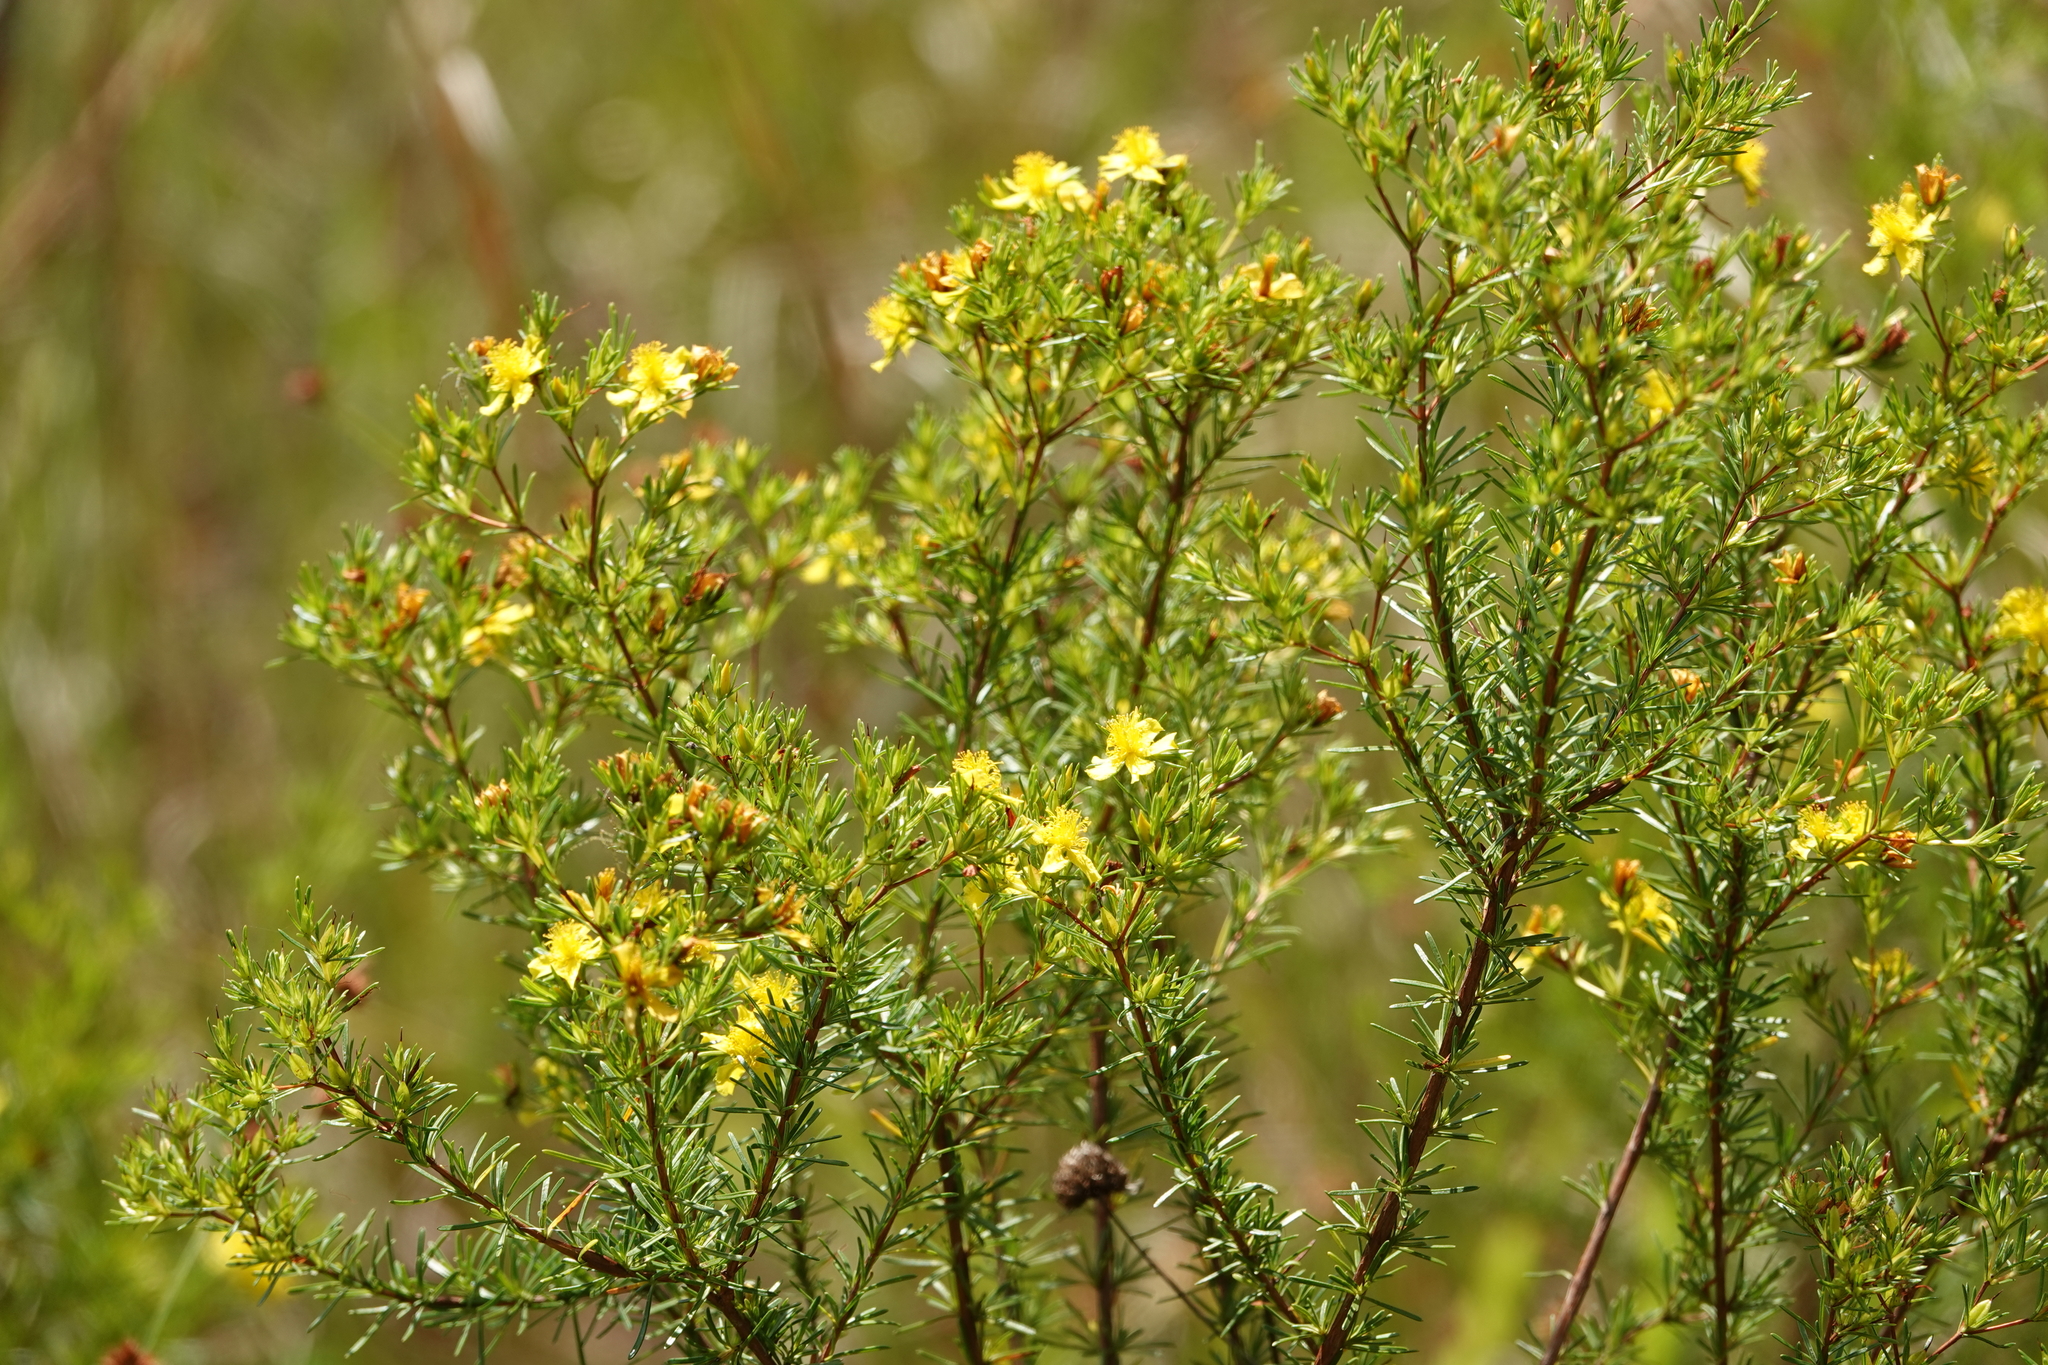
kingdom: Plantae
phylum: Tracheophyta
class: Magnoliopsida
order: Malpighiales
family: Hypericaceae
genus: Hypericum
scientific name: Hypericum fasciculatum
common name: Peelbark st. john's wort
